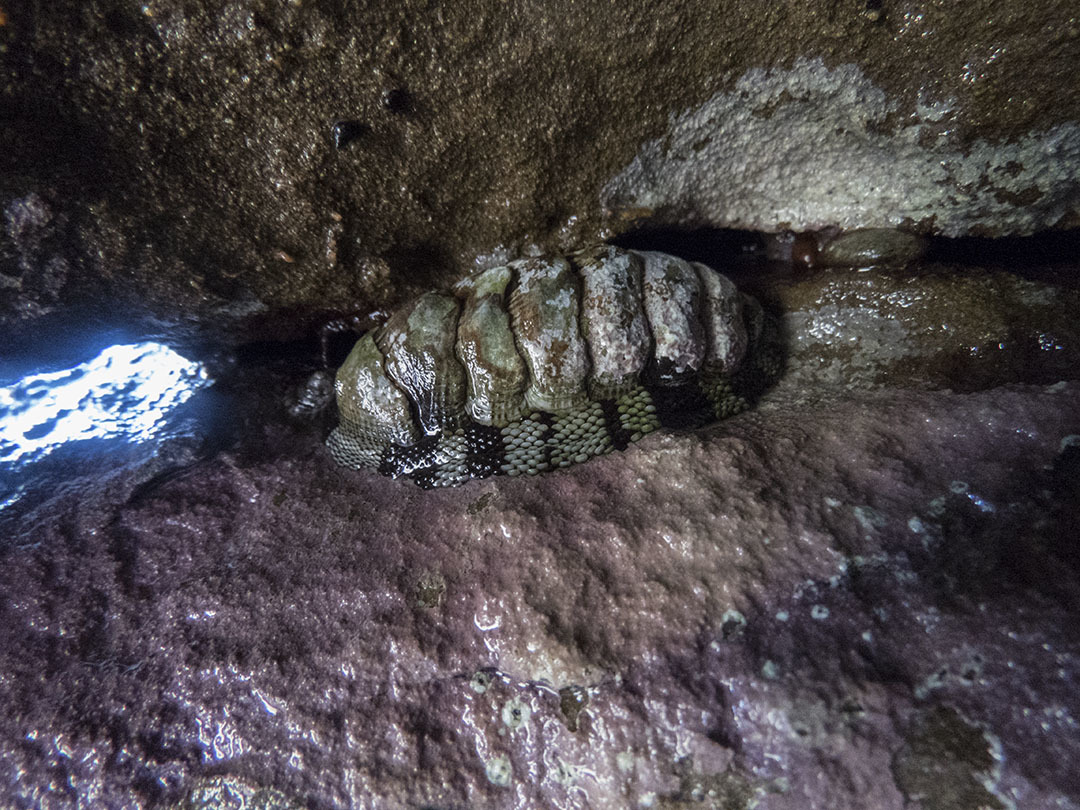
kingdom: Animalia
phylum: Mollusca
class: Polyplacophora
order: Chitonida
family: Chitonidae
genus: Sypharochiton
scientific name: Sypharochiton pelliserpentis
